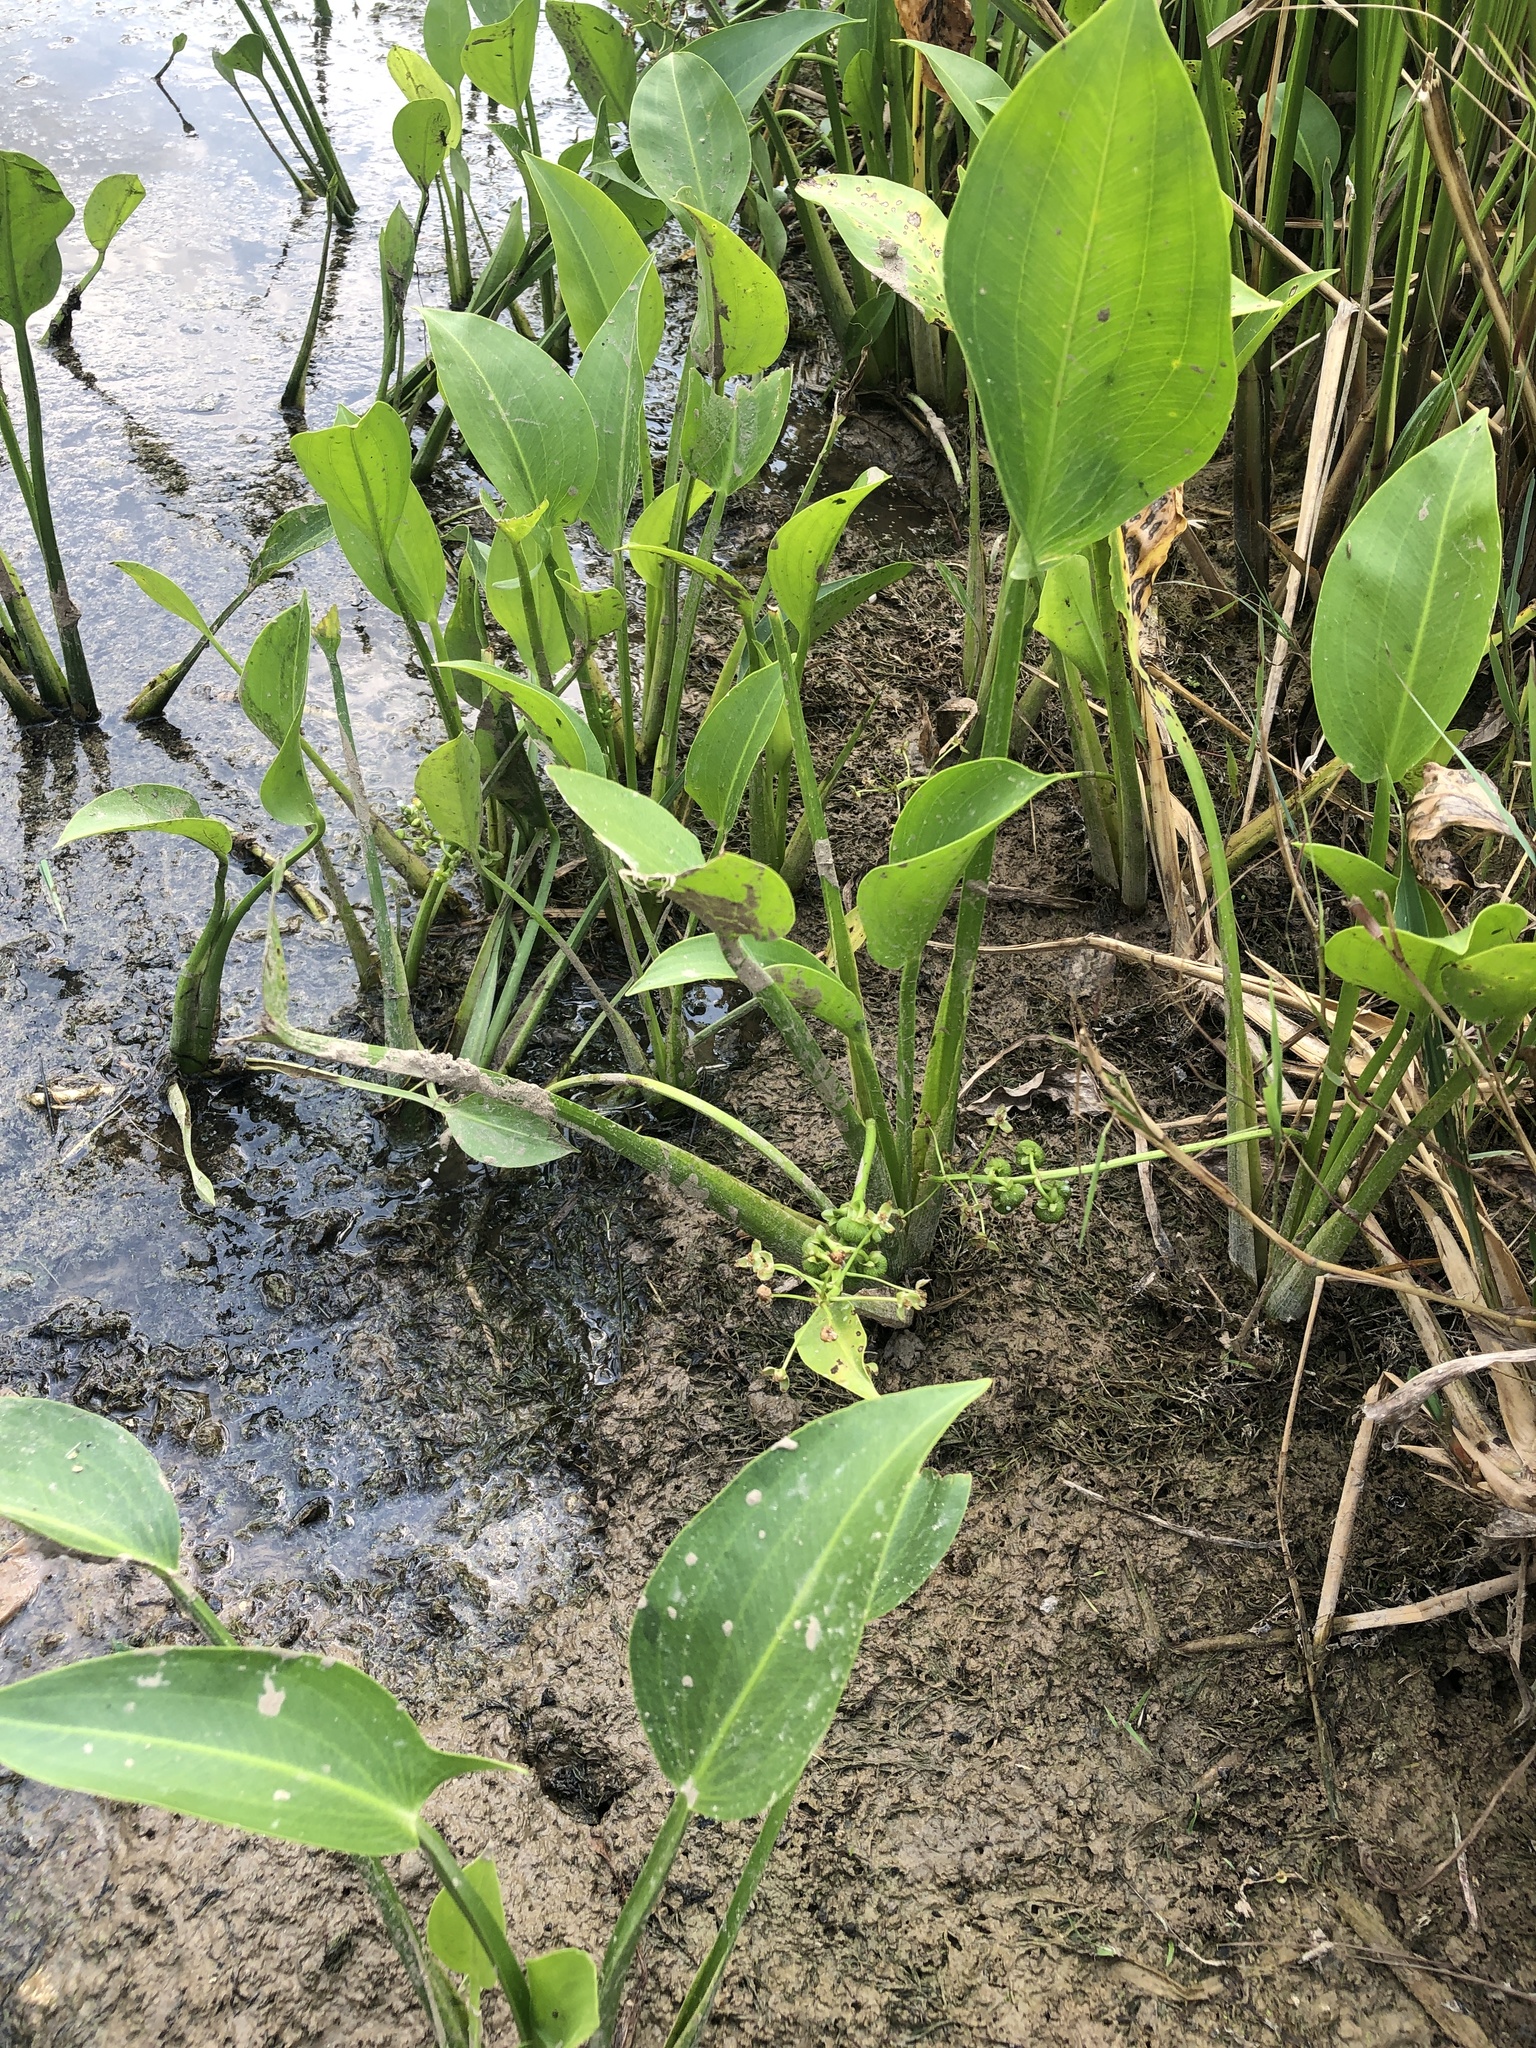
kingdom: Plantae
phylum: Tracheophyta
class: Liliopsida
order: Alismatales
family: Alismataceae
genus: Sagittaria
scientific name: Sagittaria platyphylla
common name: Broad-leaf arrowhead
